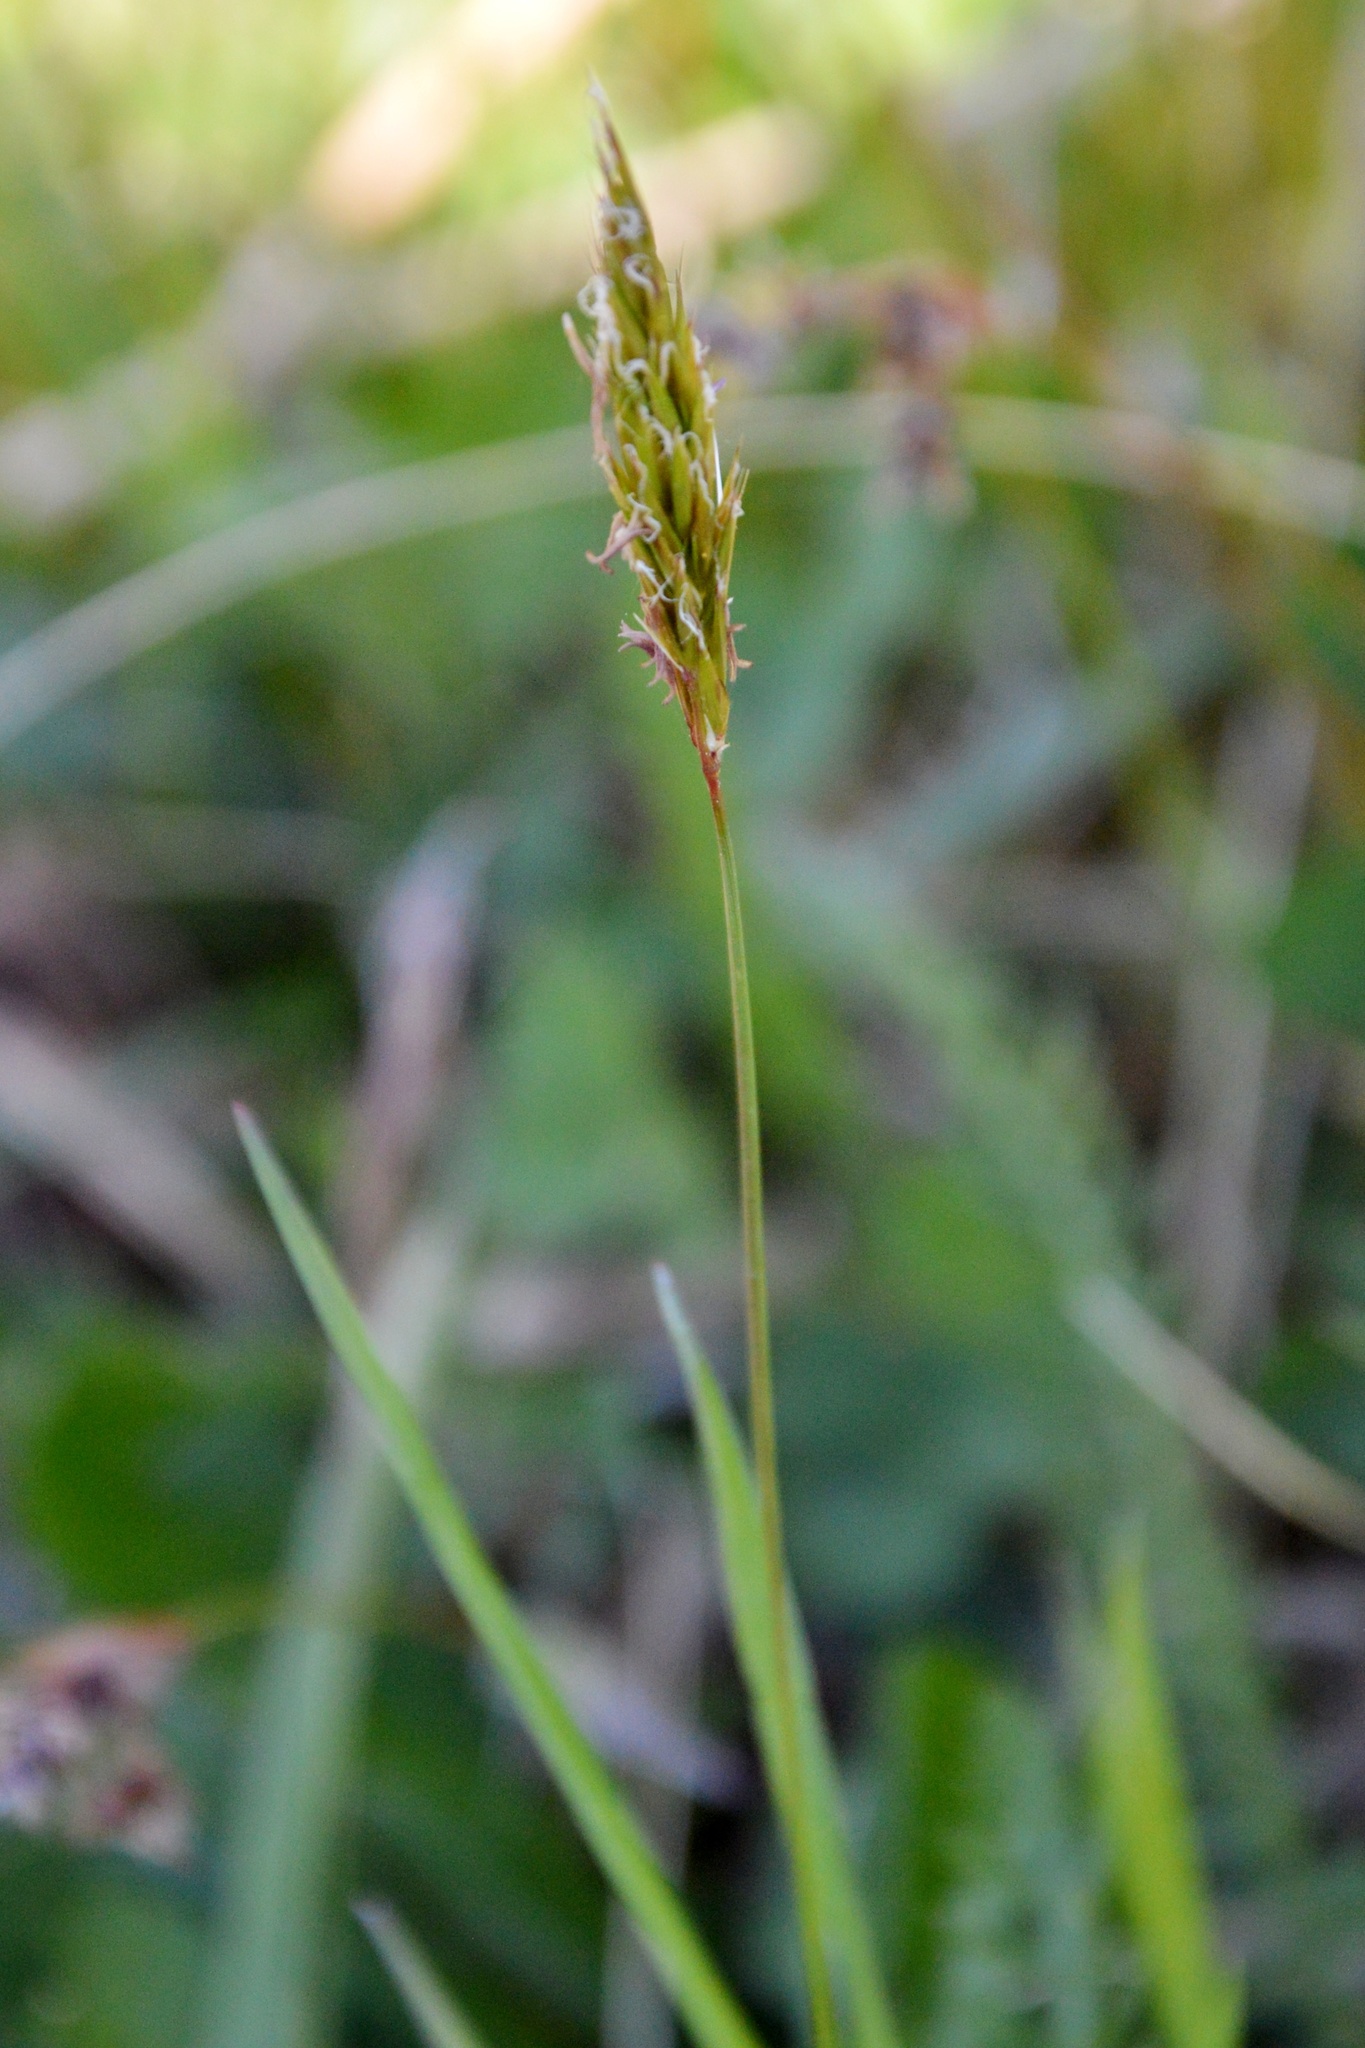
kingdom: Plantae
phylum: Tracheophyta
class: Liliopsida
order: Poales
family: Poaceae
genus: Anthoxanthum
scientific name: Anthoxanthum odoratum
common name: Sweet vernalgrass
